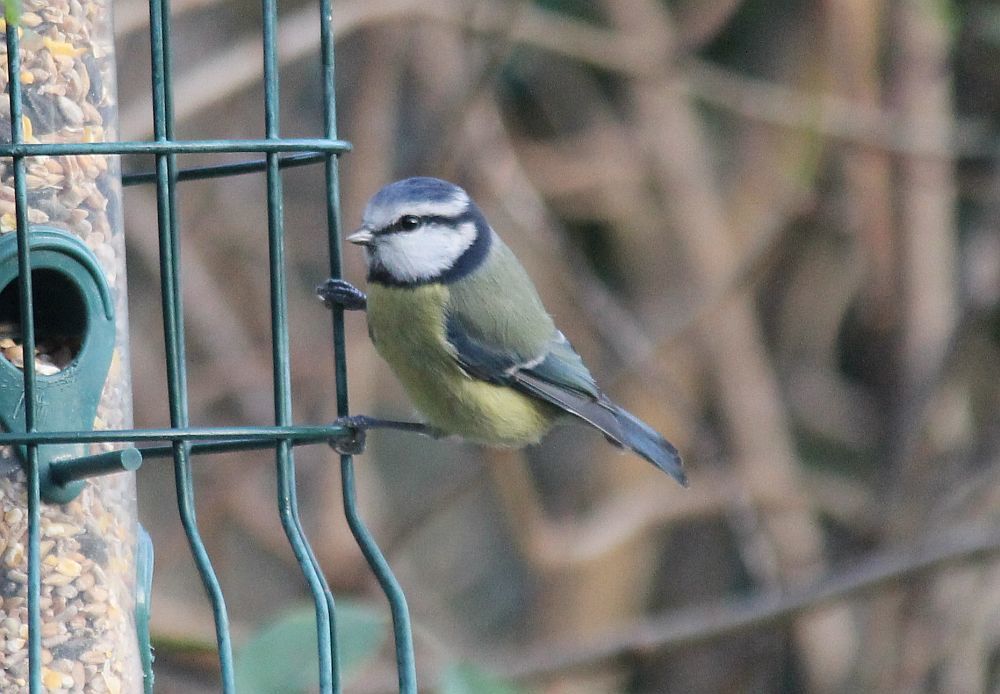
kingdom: Animalia
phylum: Chordata
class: Aves
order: Passeriformes
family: Paridae
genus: Cyanistes
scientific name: Cyanistes caeruleus
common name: Eurasian blue tit
